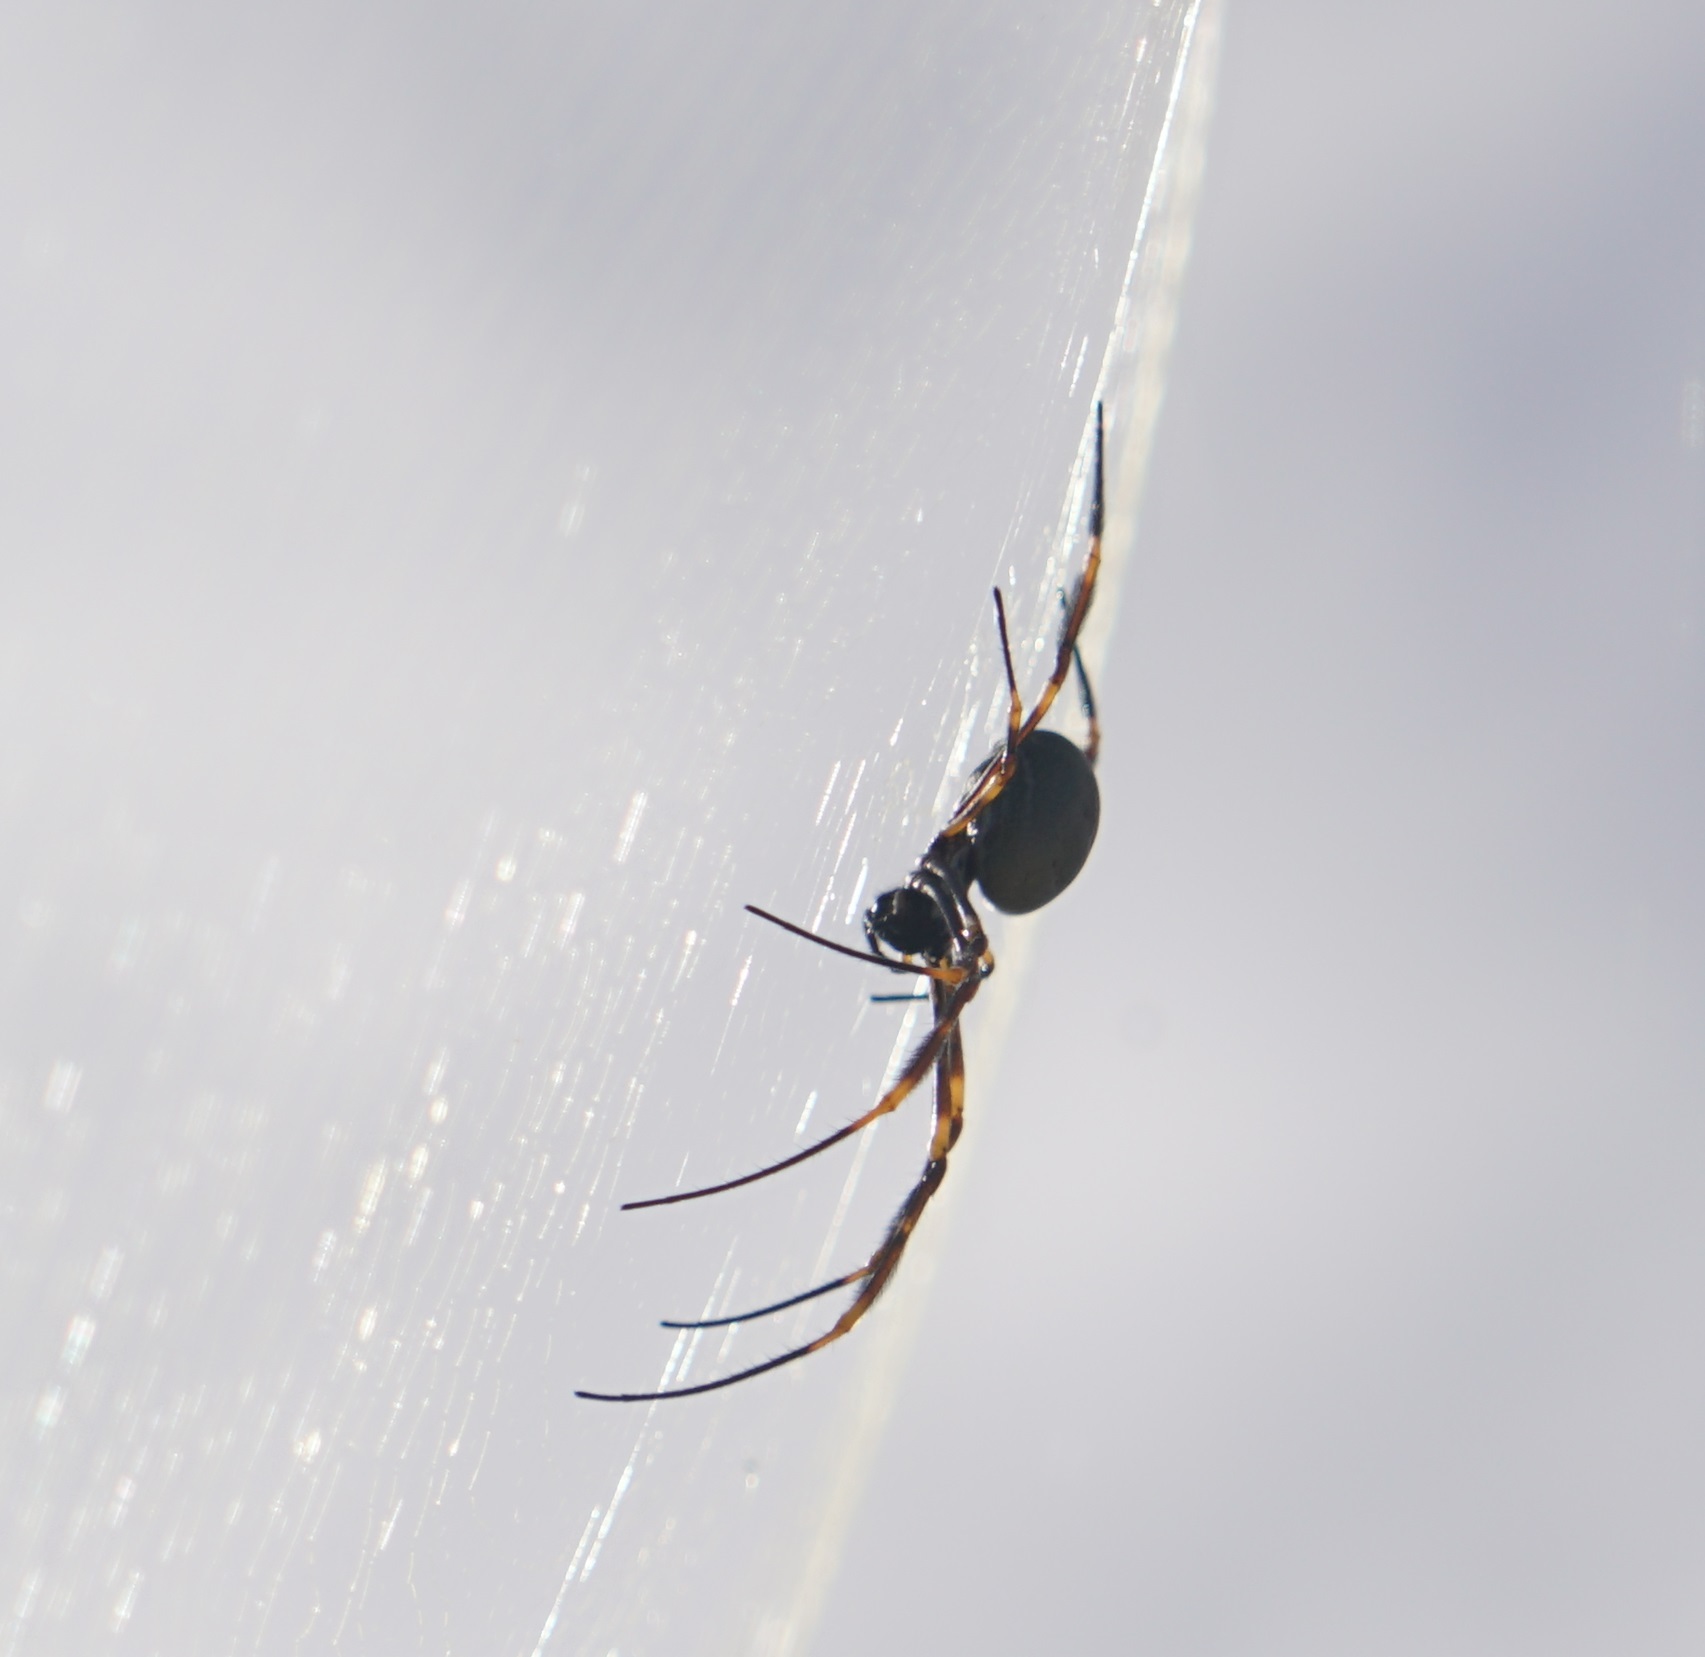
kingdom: Animalia
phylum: Arthropoda
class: Arachnida
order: Araneae
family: Araneidae
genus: Trichonephila
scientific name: Trichonephila plumipes
